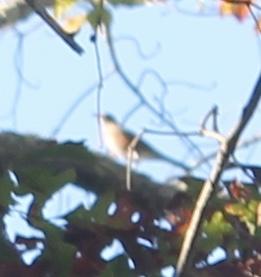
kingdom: Animalia
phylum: Chordata
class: Aves
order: Passeriformes
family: Turdidae
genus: Turdus
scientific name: Turdus migratorius
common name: American robin
